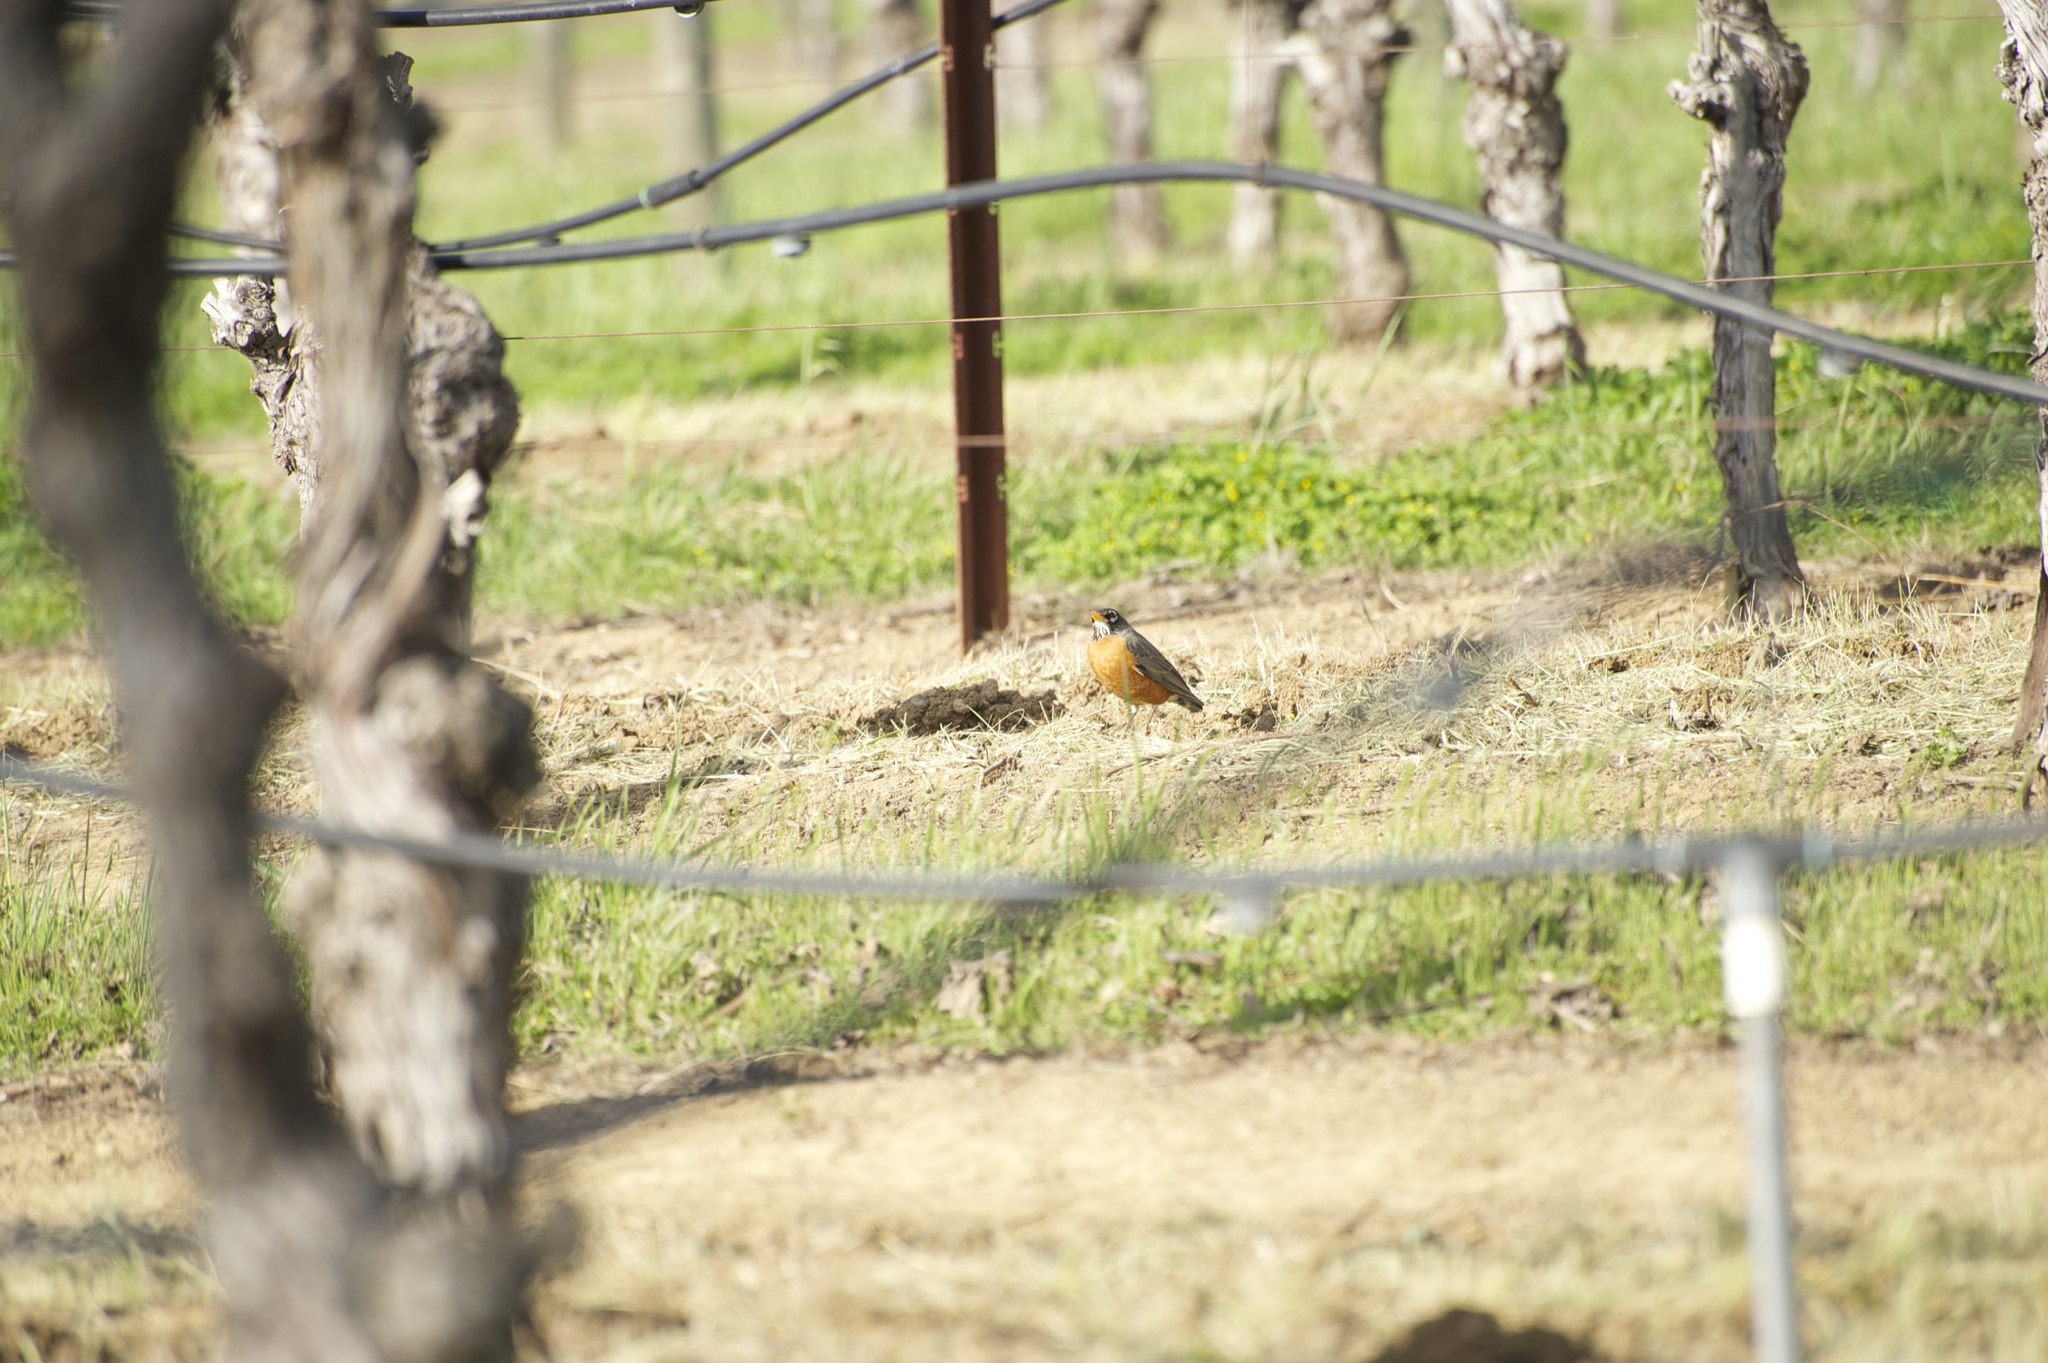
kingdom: Animalia
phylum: Chordata
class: Aves
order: Passeriformes
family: Turdidae
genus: Turdus
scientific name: Turdus migratorius
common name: American robin
